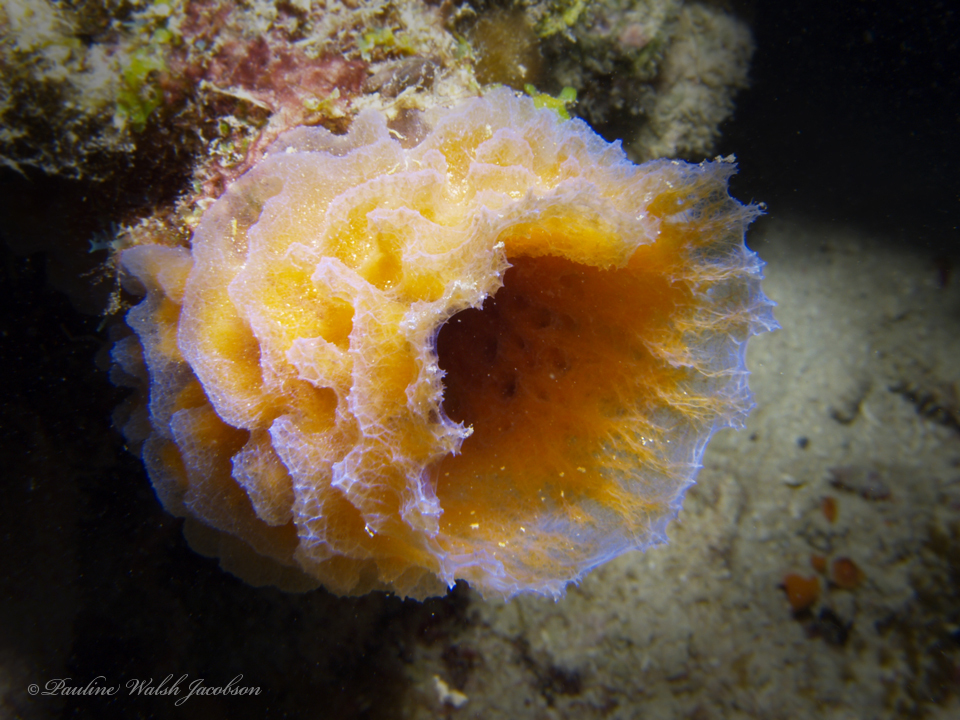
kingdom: Animalia
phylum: Porifera
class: Demospongiae
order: Haplosclerida
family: Callyspongiidae
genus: Callyspongia
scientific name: Callyspongia plicifera
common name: Azure vase sponge
